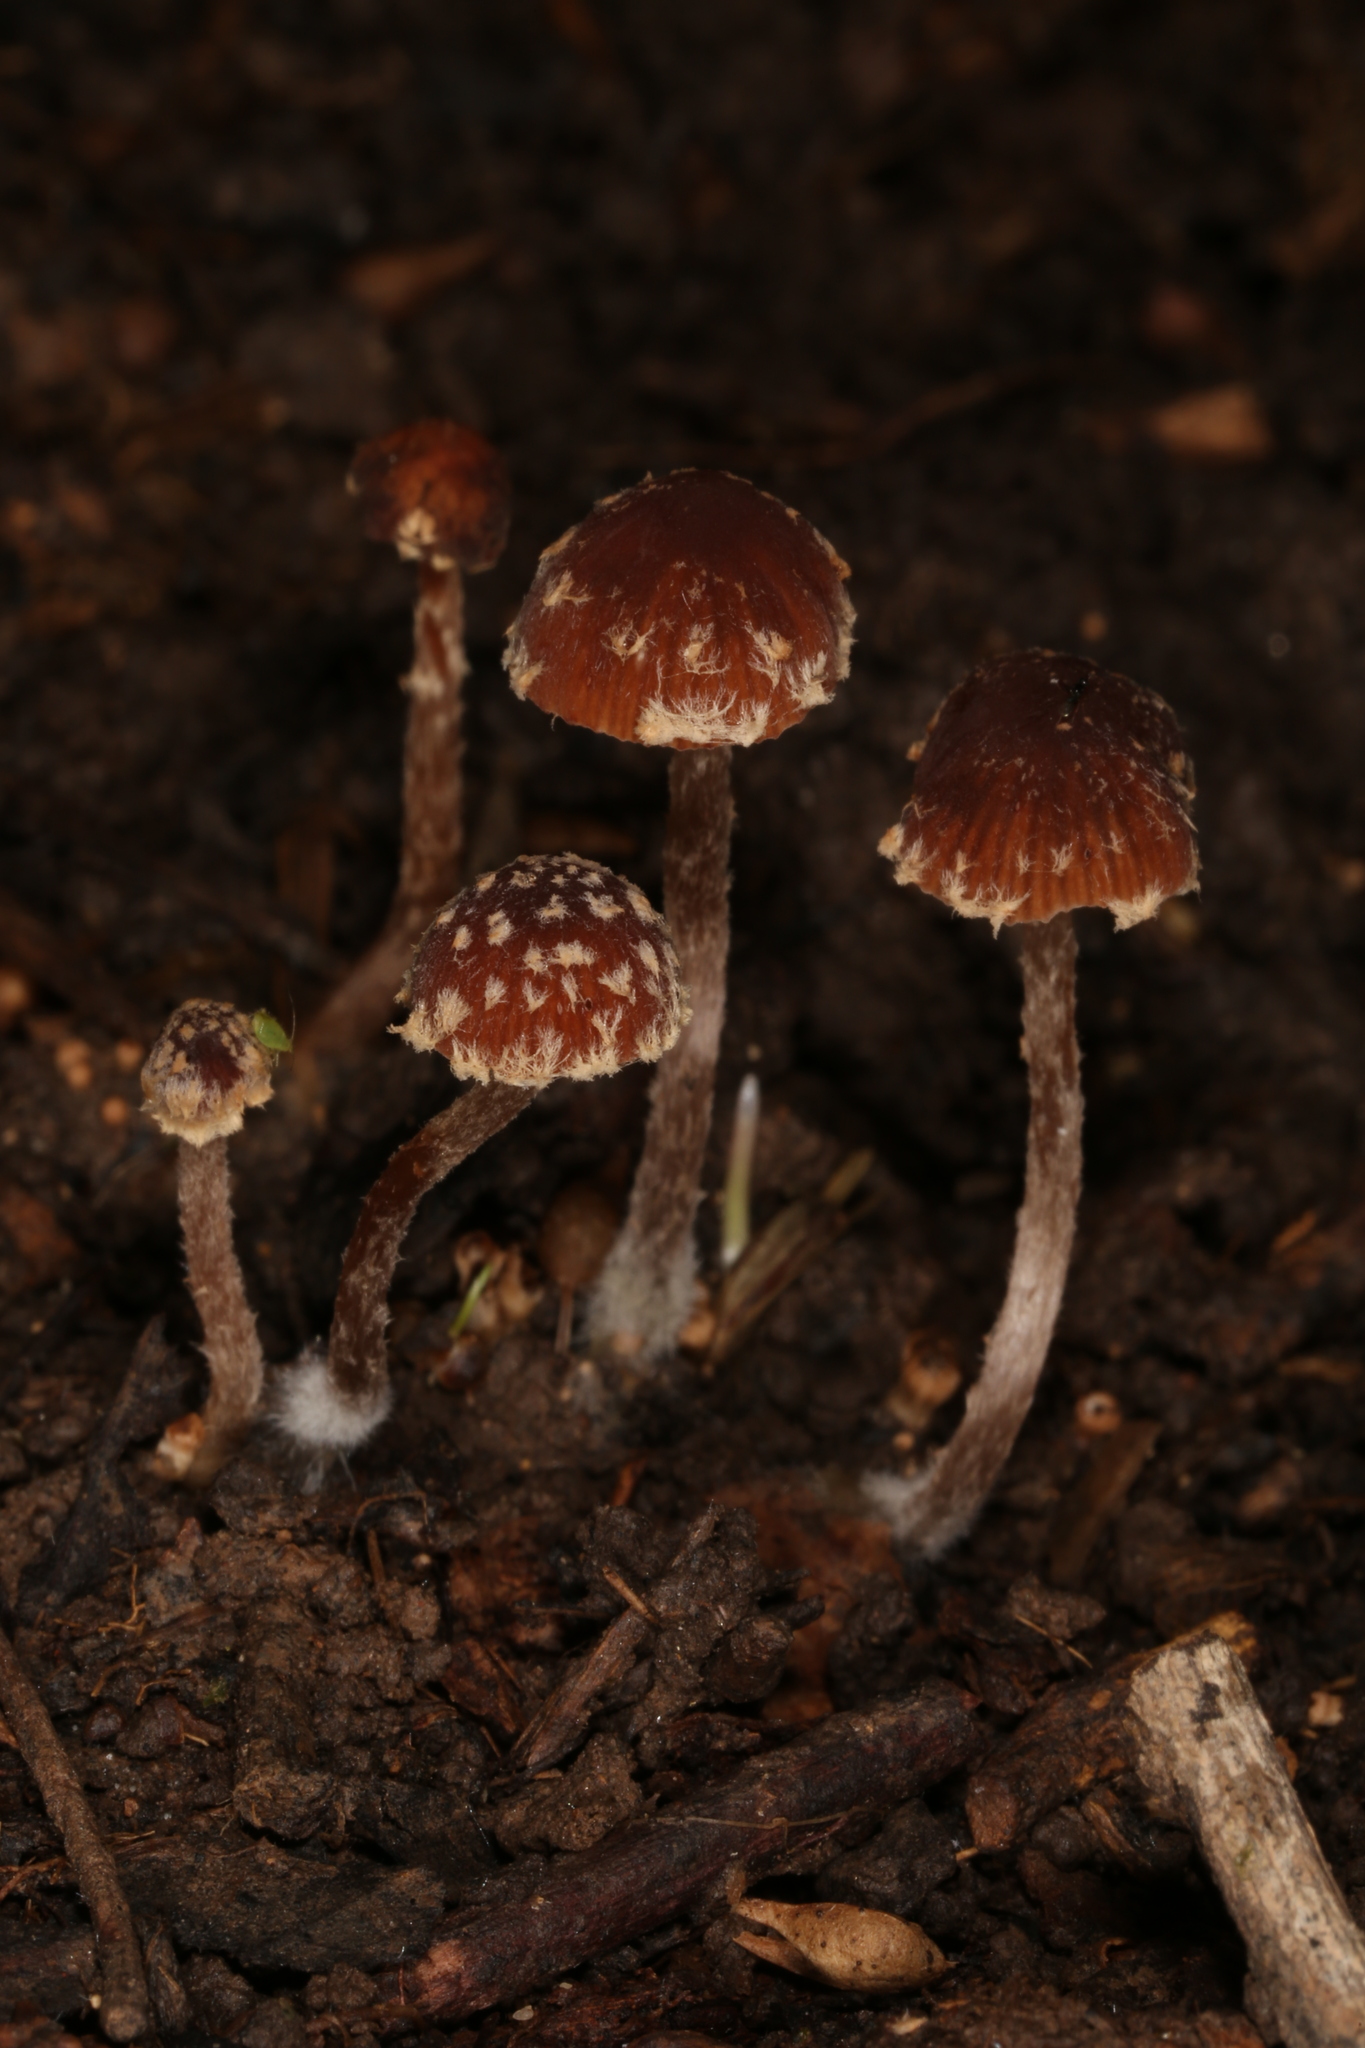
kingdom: Fungi
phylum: Basidiomycota
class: Agaricomycetes
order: Agaricales
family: Psathyrellaceae
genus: Psathyrella
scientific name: Psathyrella vinosofulva
